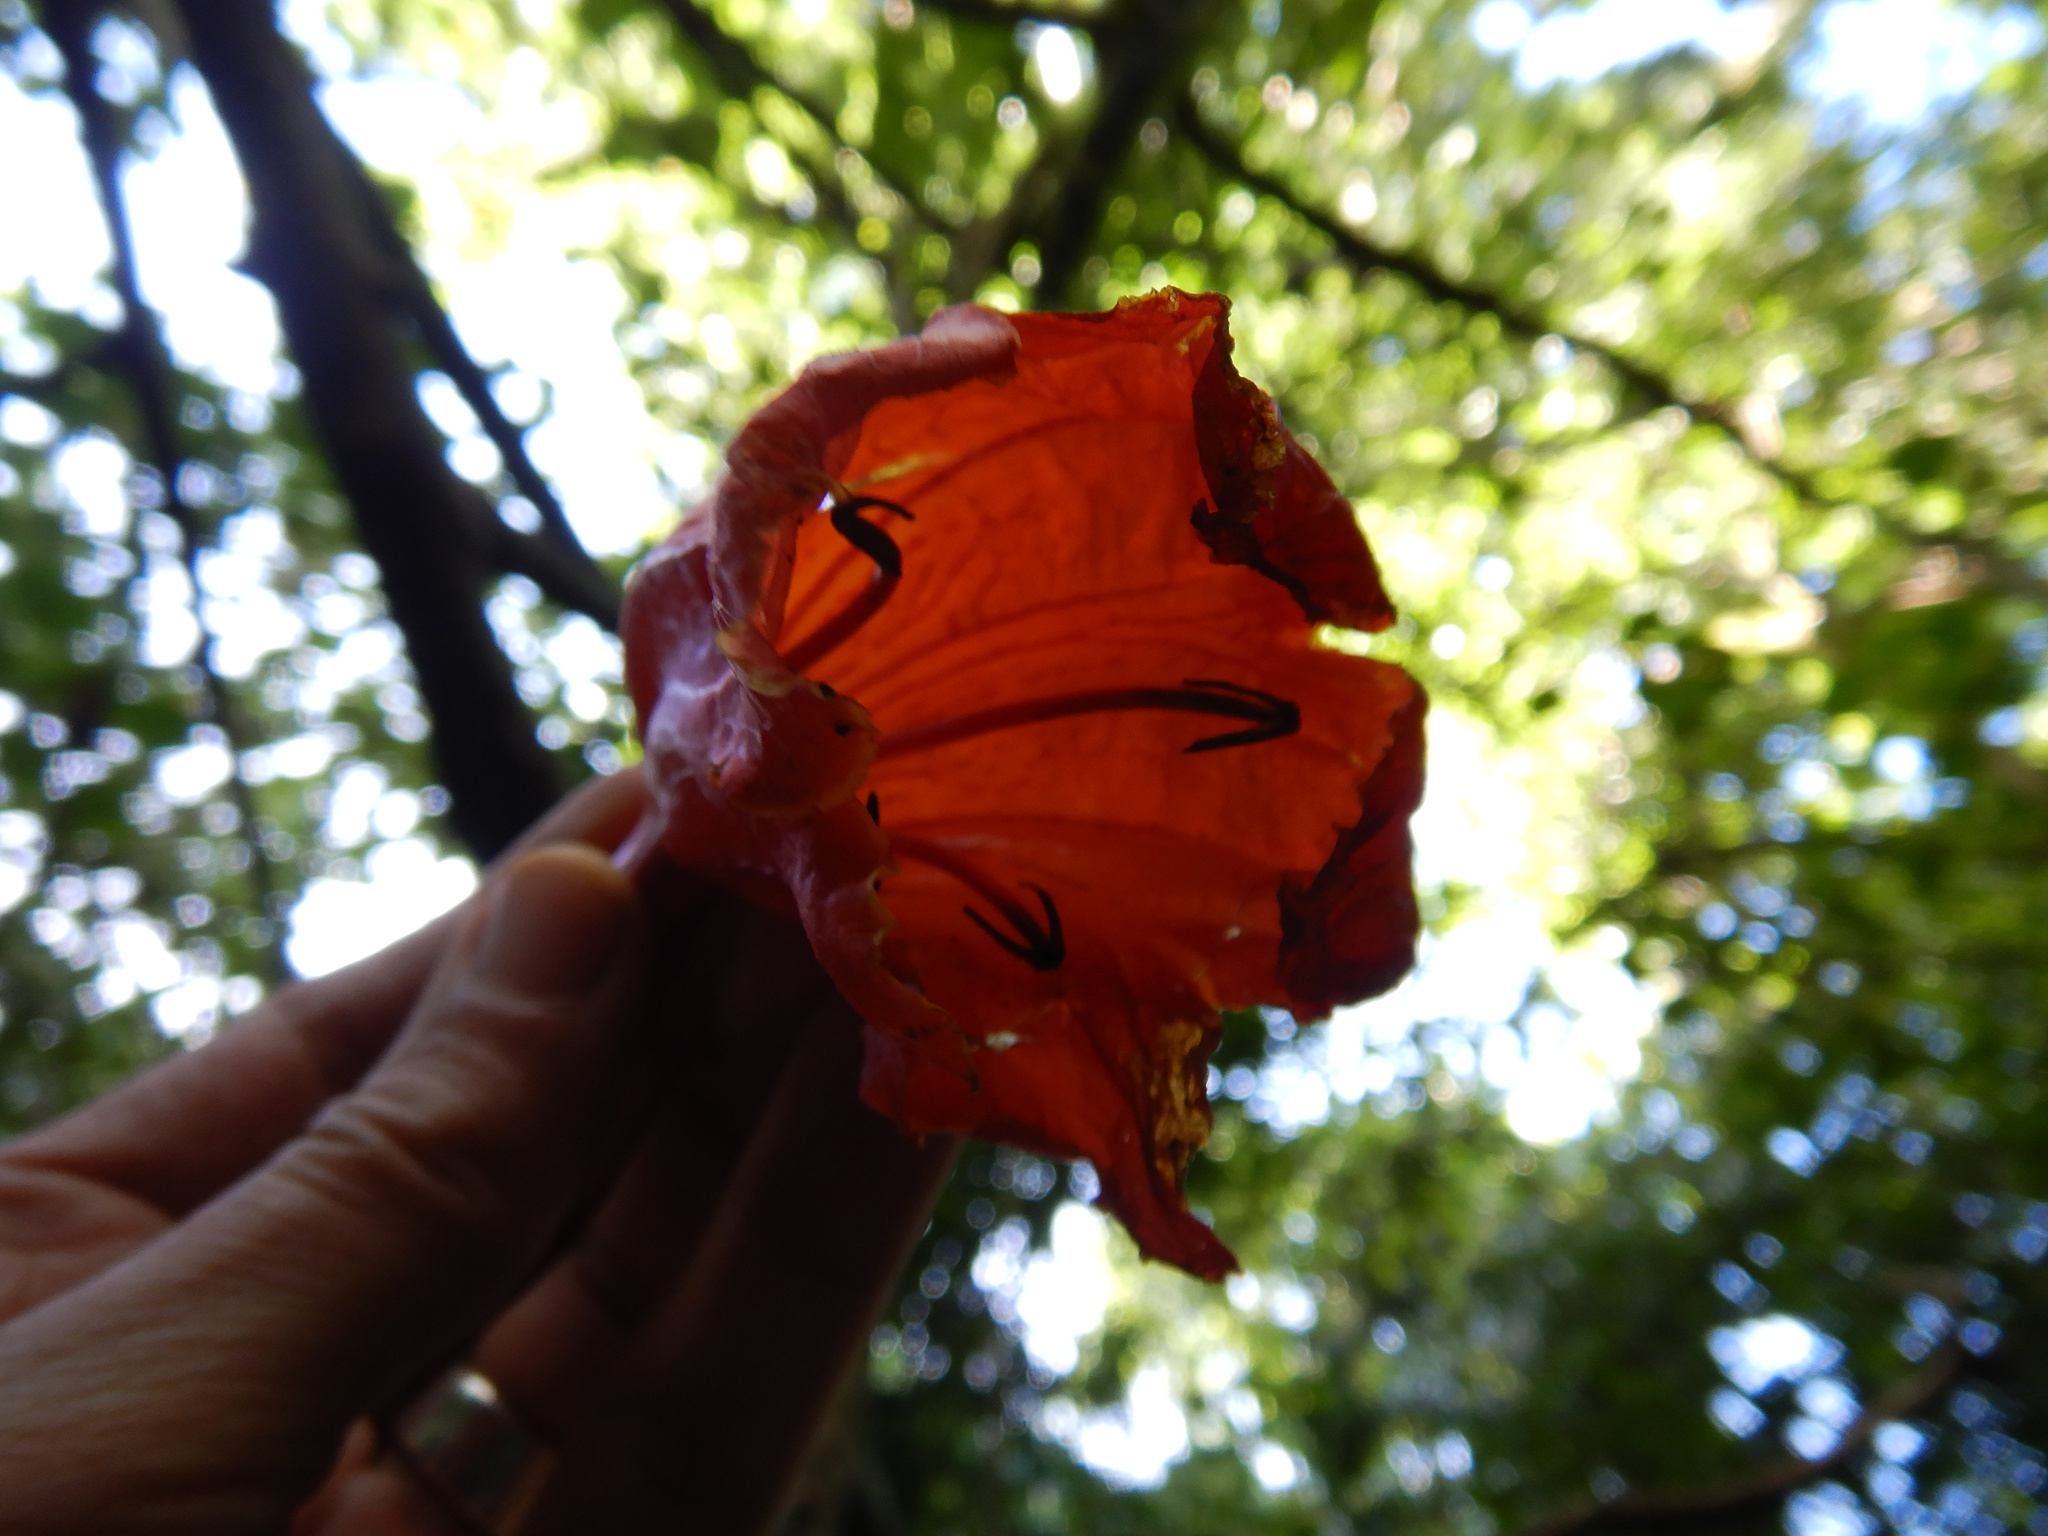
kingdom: Plantae
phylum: Tracheophyta
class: Magnoliopsida
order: Lamiales
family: Bignoniaceae
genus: Spathodea
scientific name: Spathodea campanulata
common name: African tuliptree
